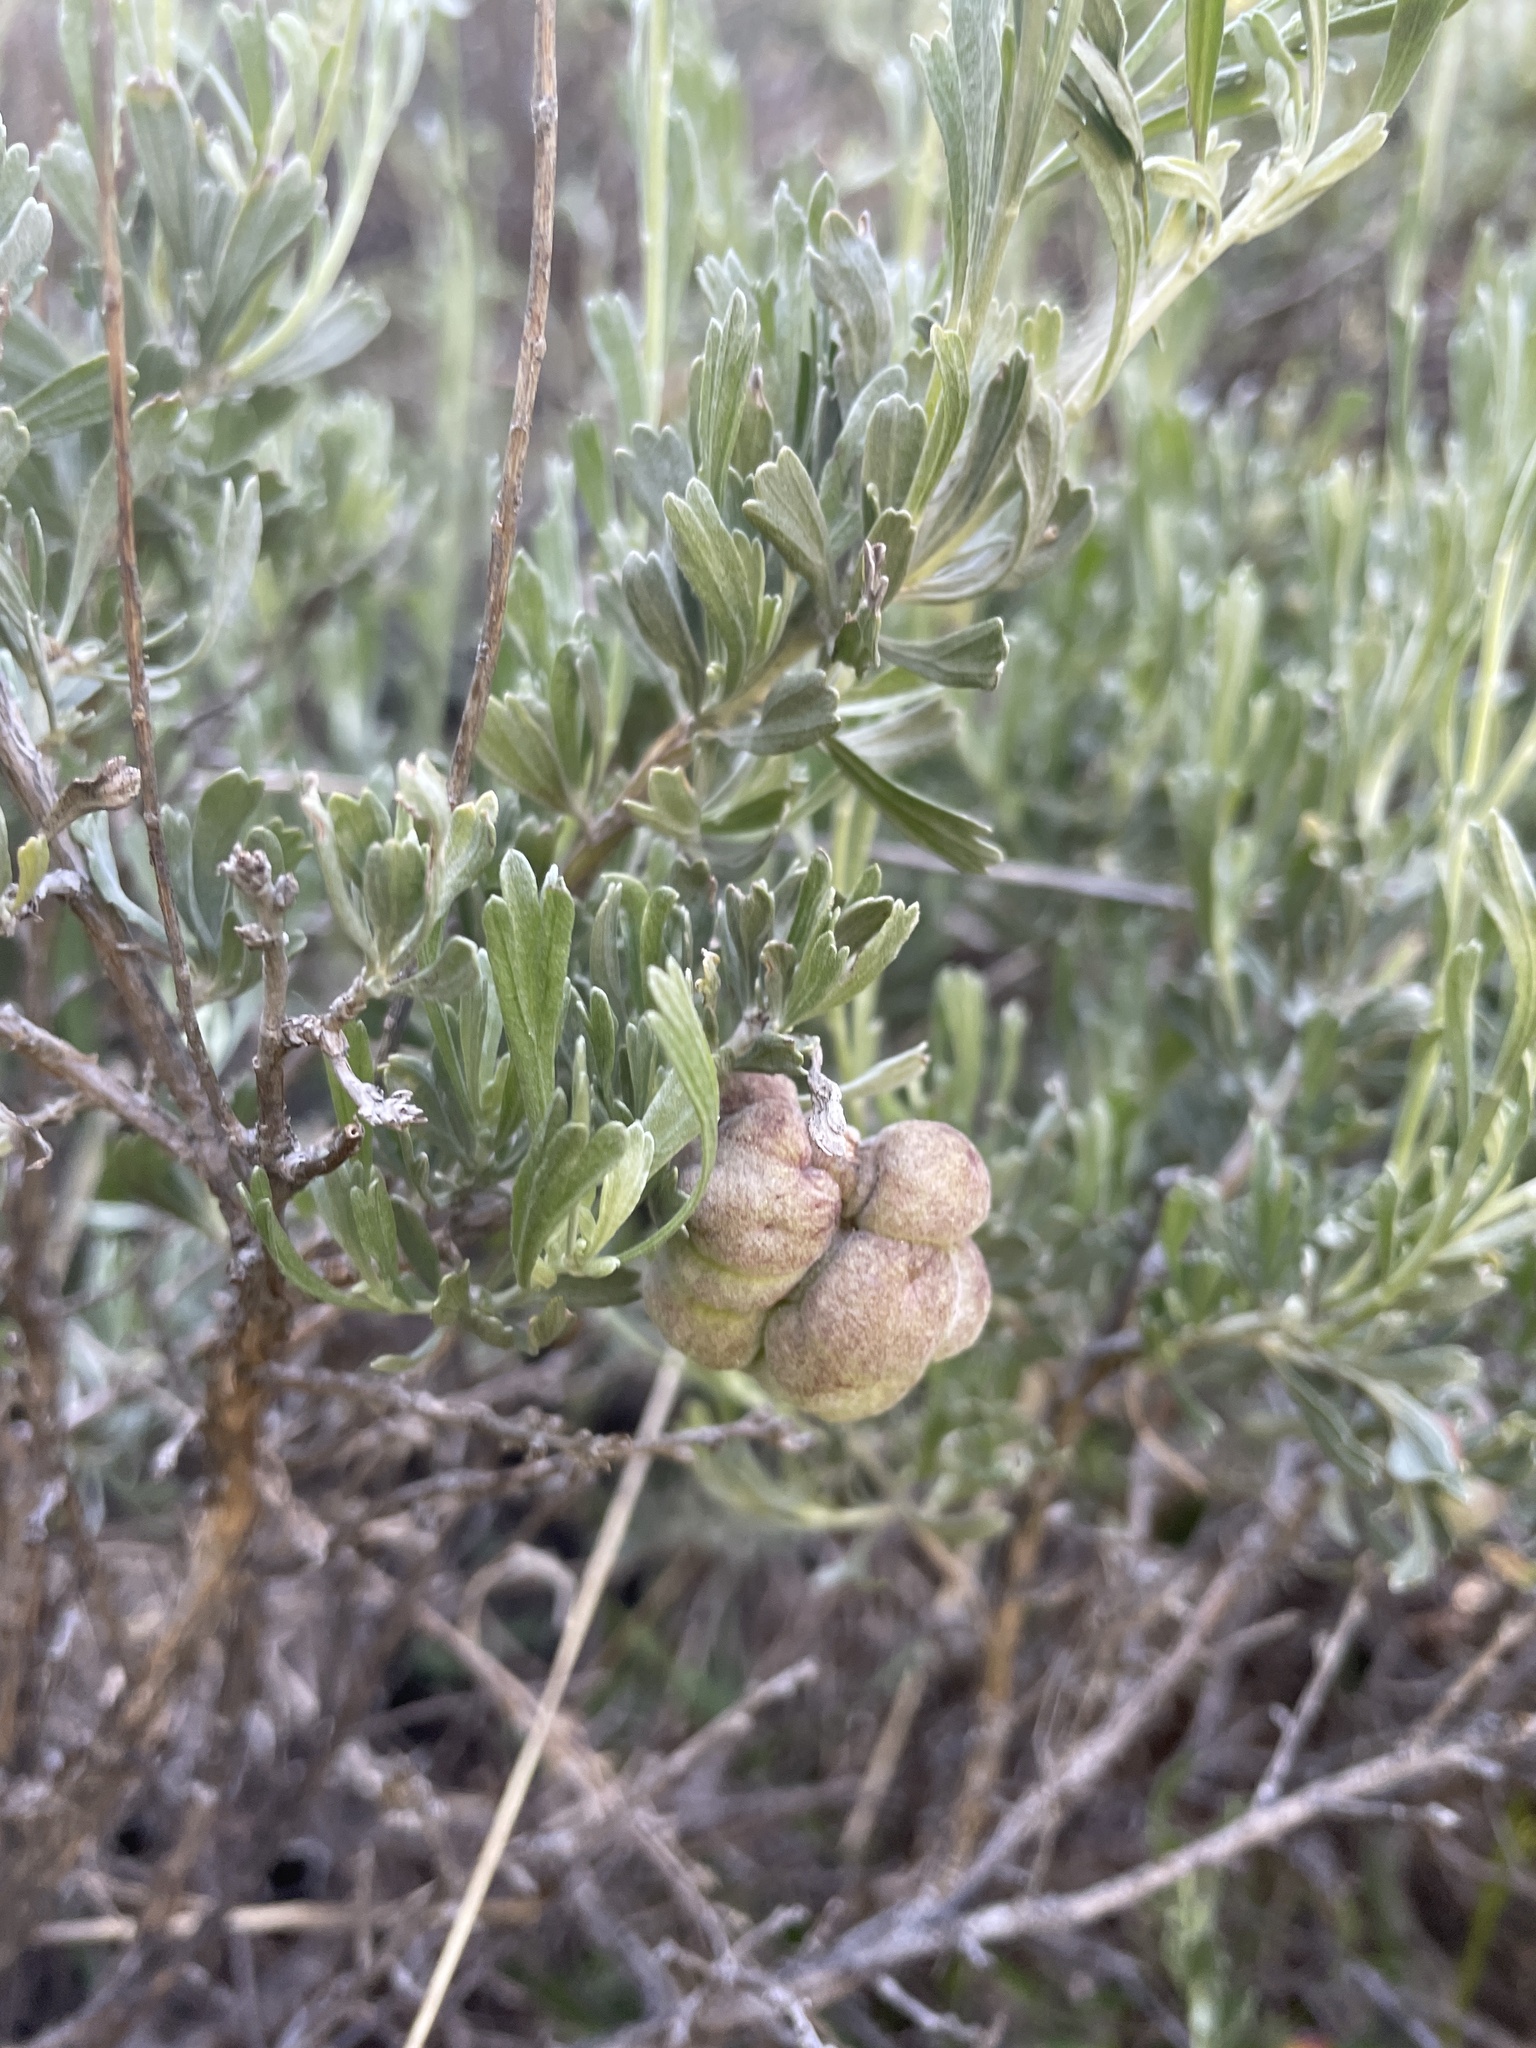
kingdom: Animalia
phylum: Arthropoda
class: Insecta
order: Diptera
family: Cecidomyiidae
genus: Rhopalomyia
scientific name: Rhopalomyia pomum
